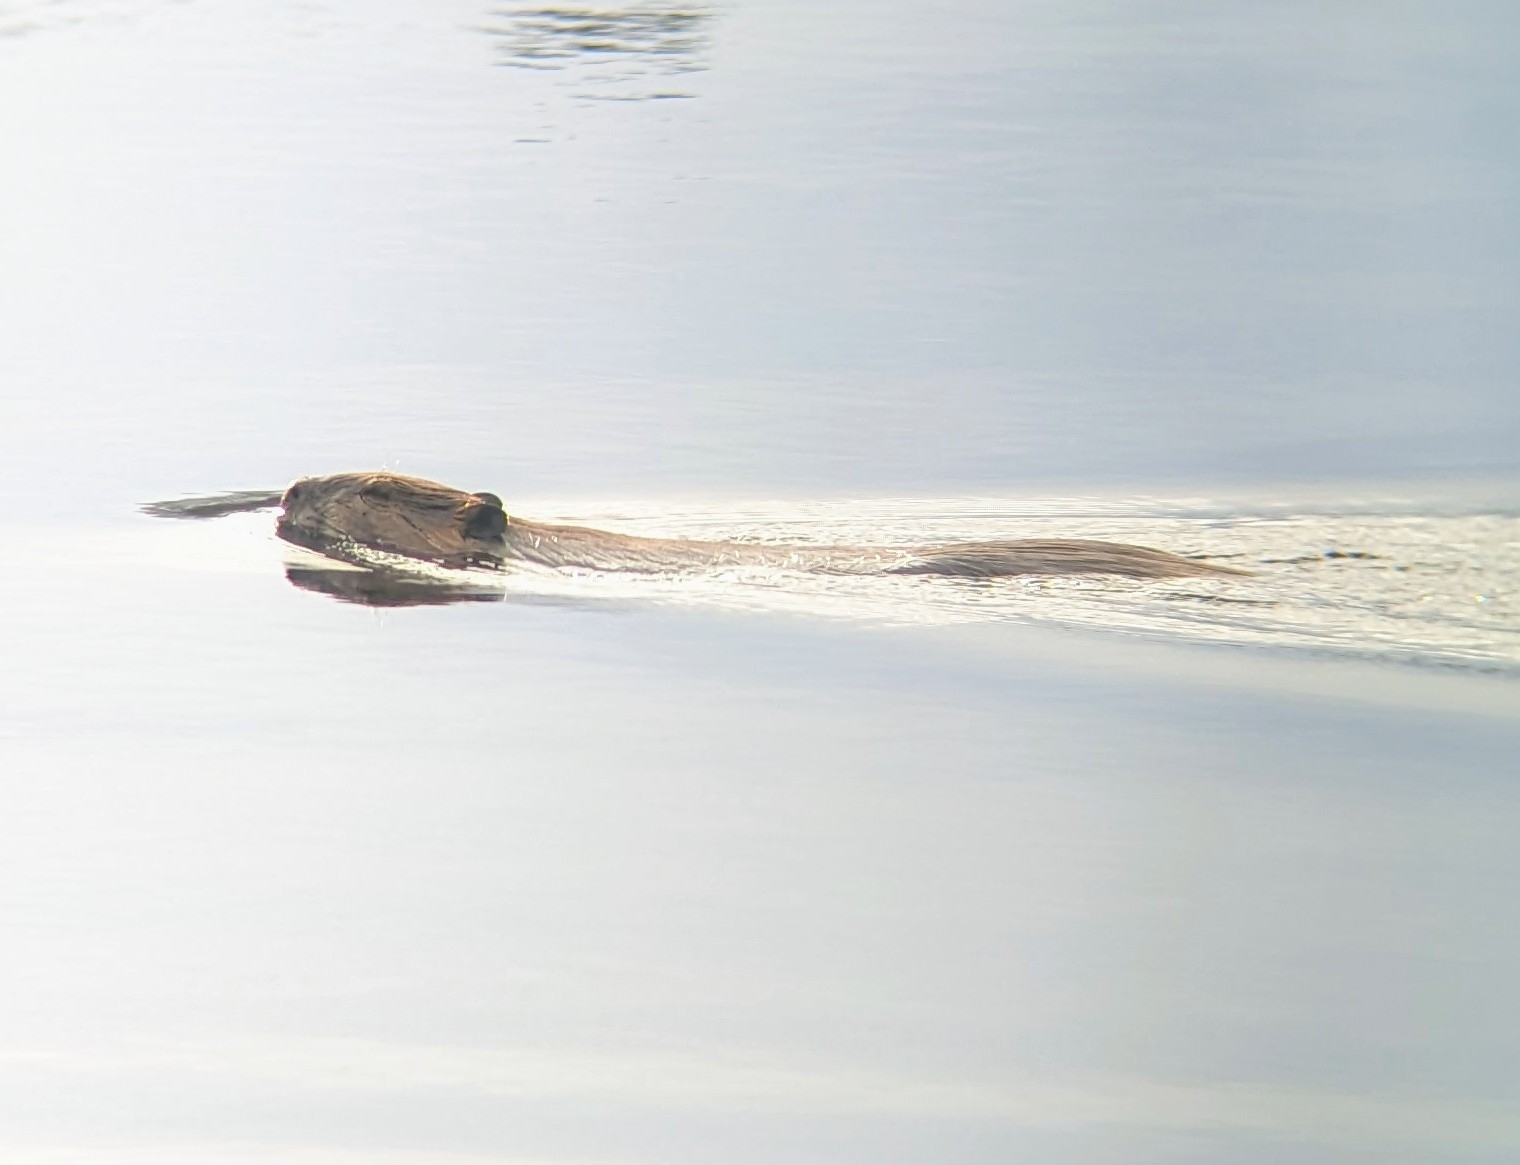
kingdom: Animalia
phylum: Chordata
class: Mammalia
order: Rodentia
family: Castoridae
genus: Castor
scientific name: Castor canadensis
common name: American beaver
